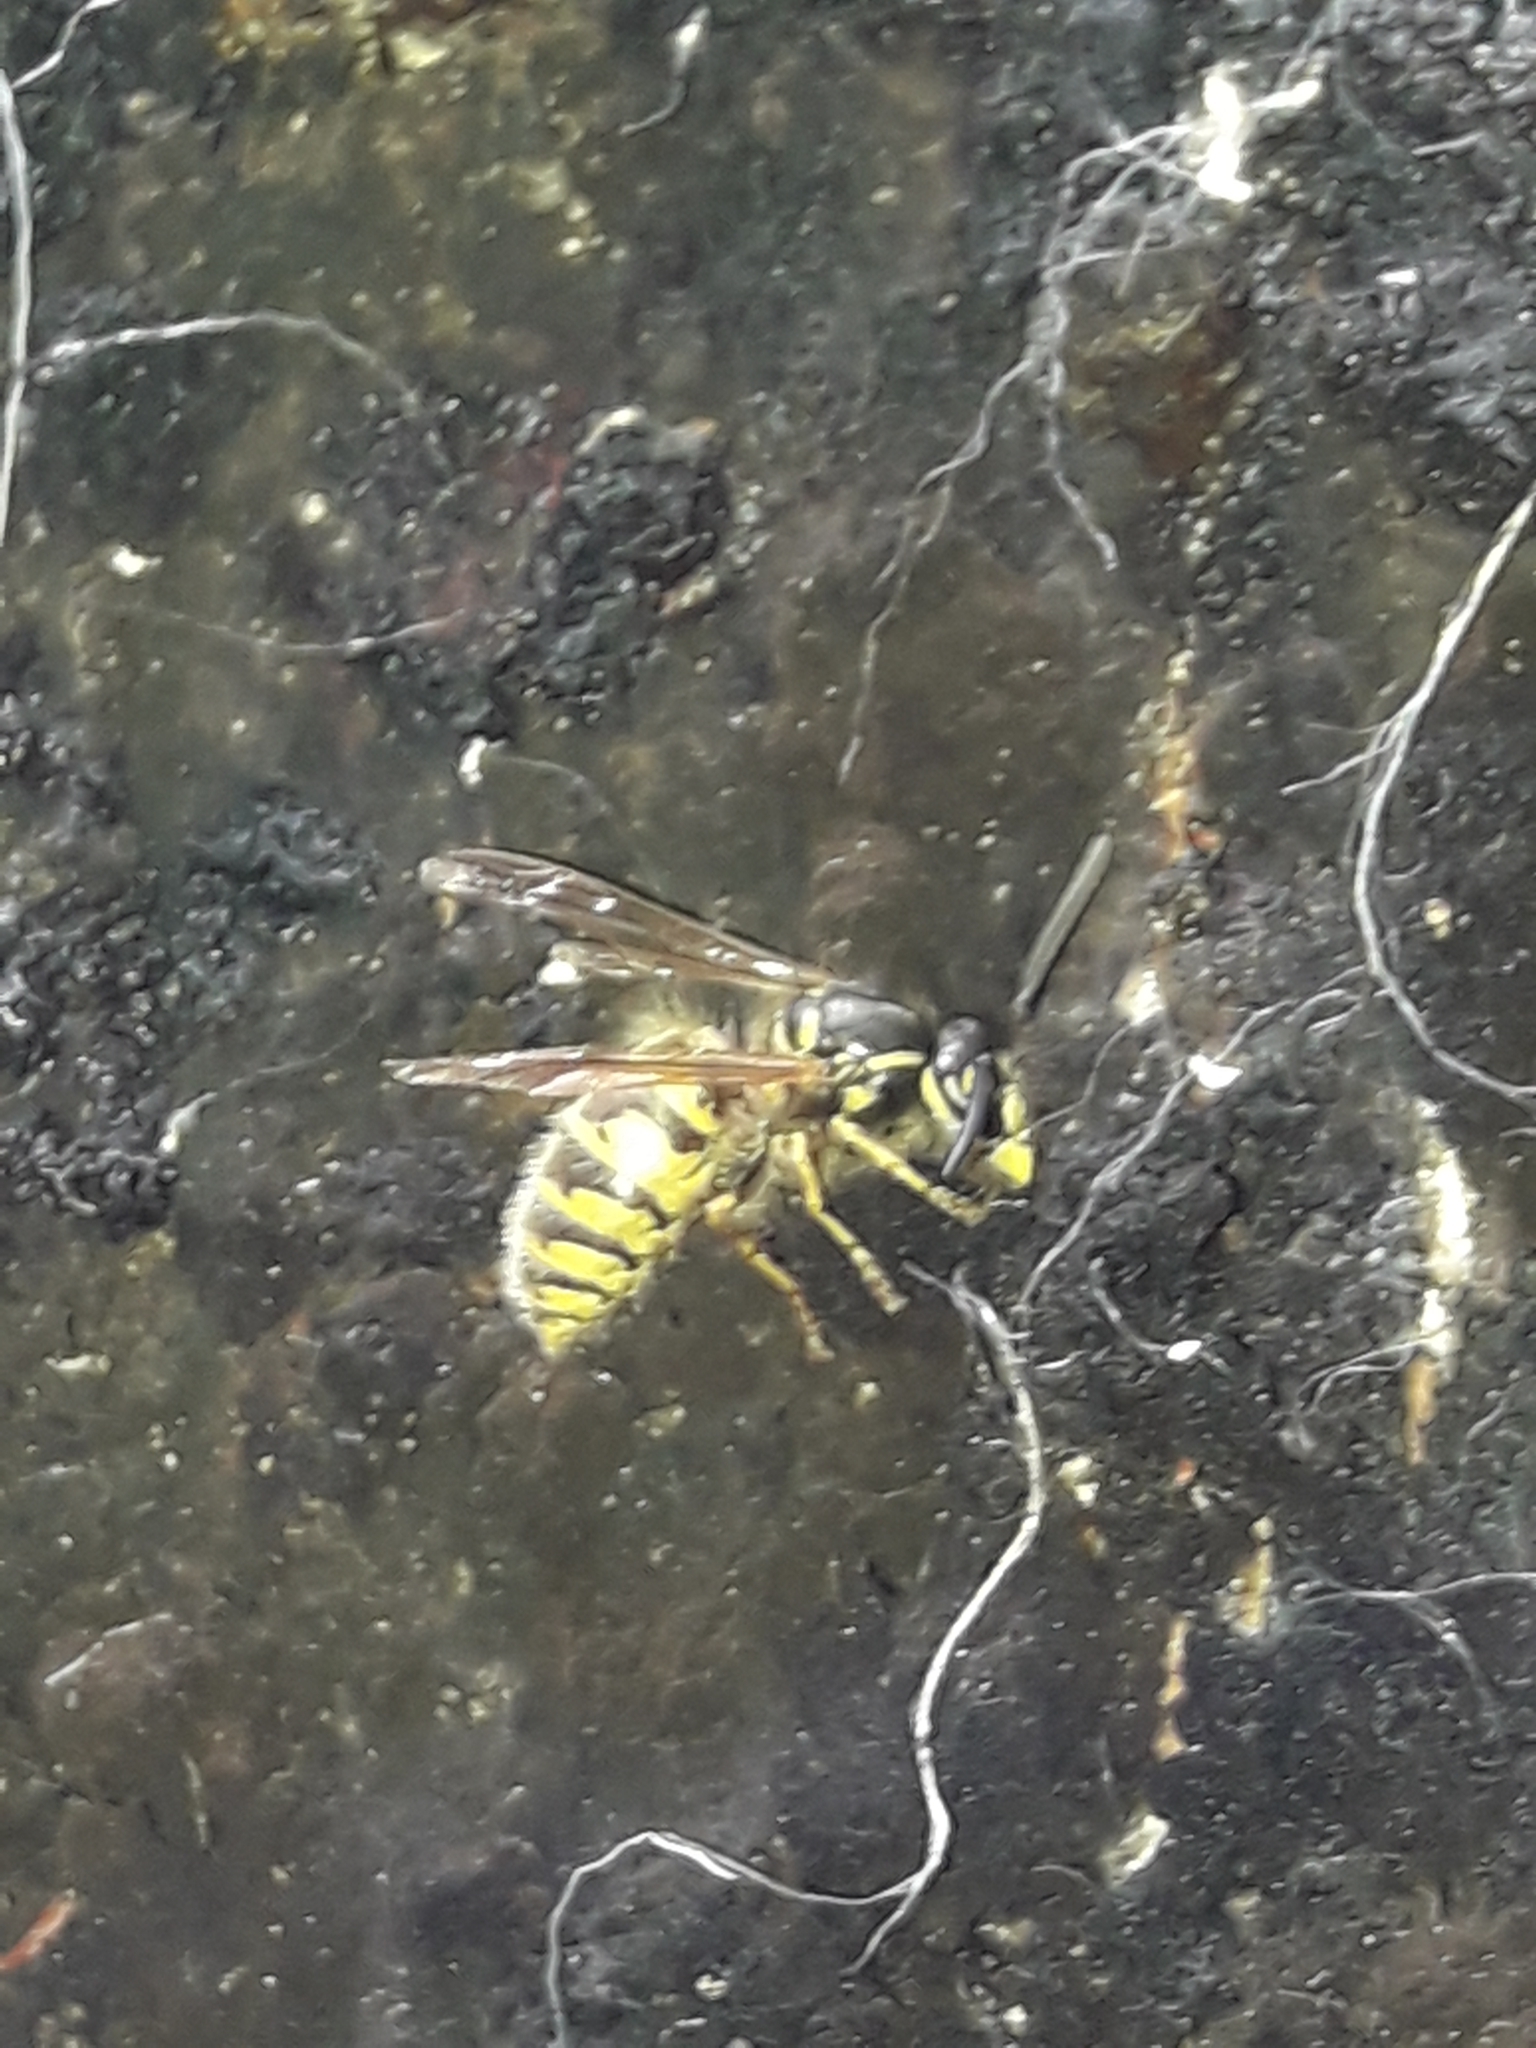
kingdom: Animalia
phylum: Arthropoda
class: Insecta
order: Hymenoptera
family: Vespidae
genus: Vespula
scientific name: Vespula vulgaris
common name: Common wasp
